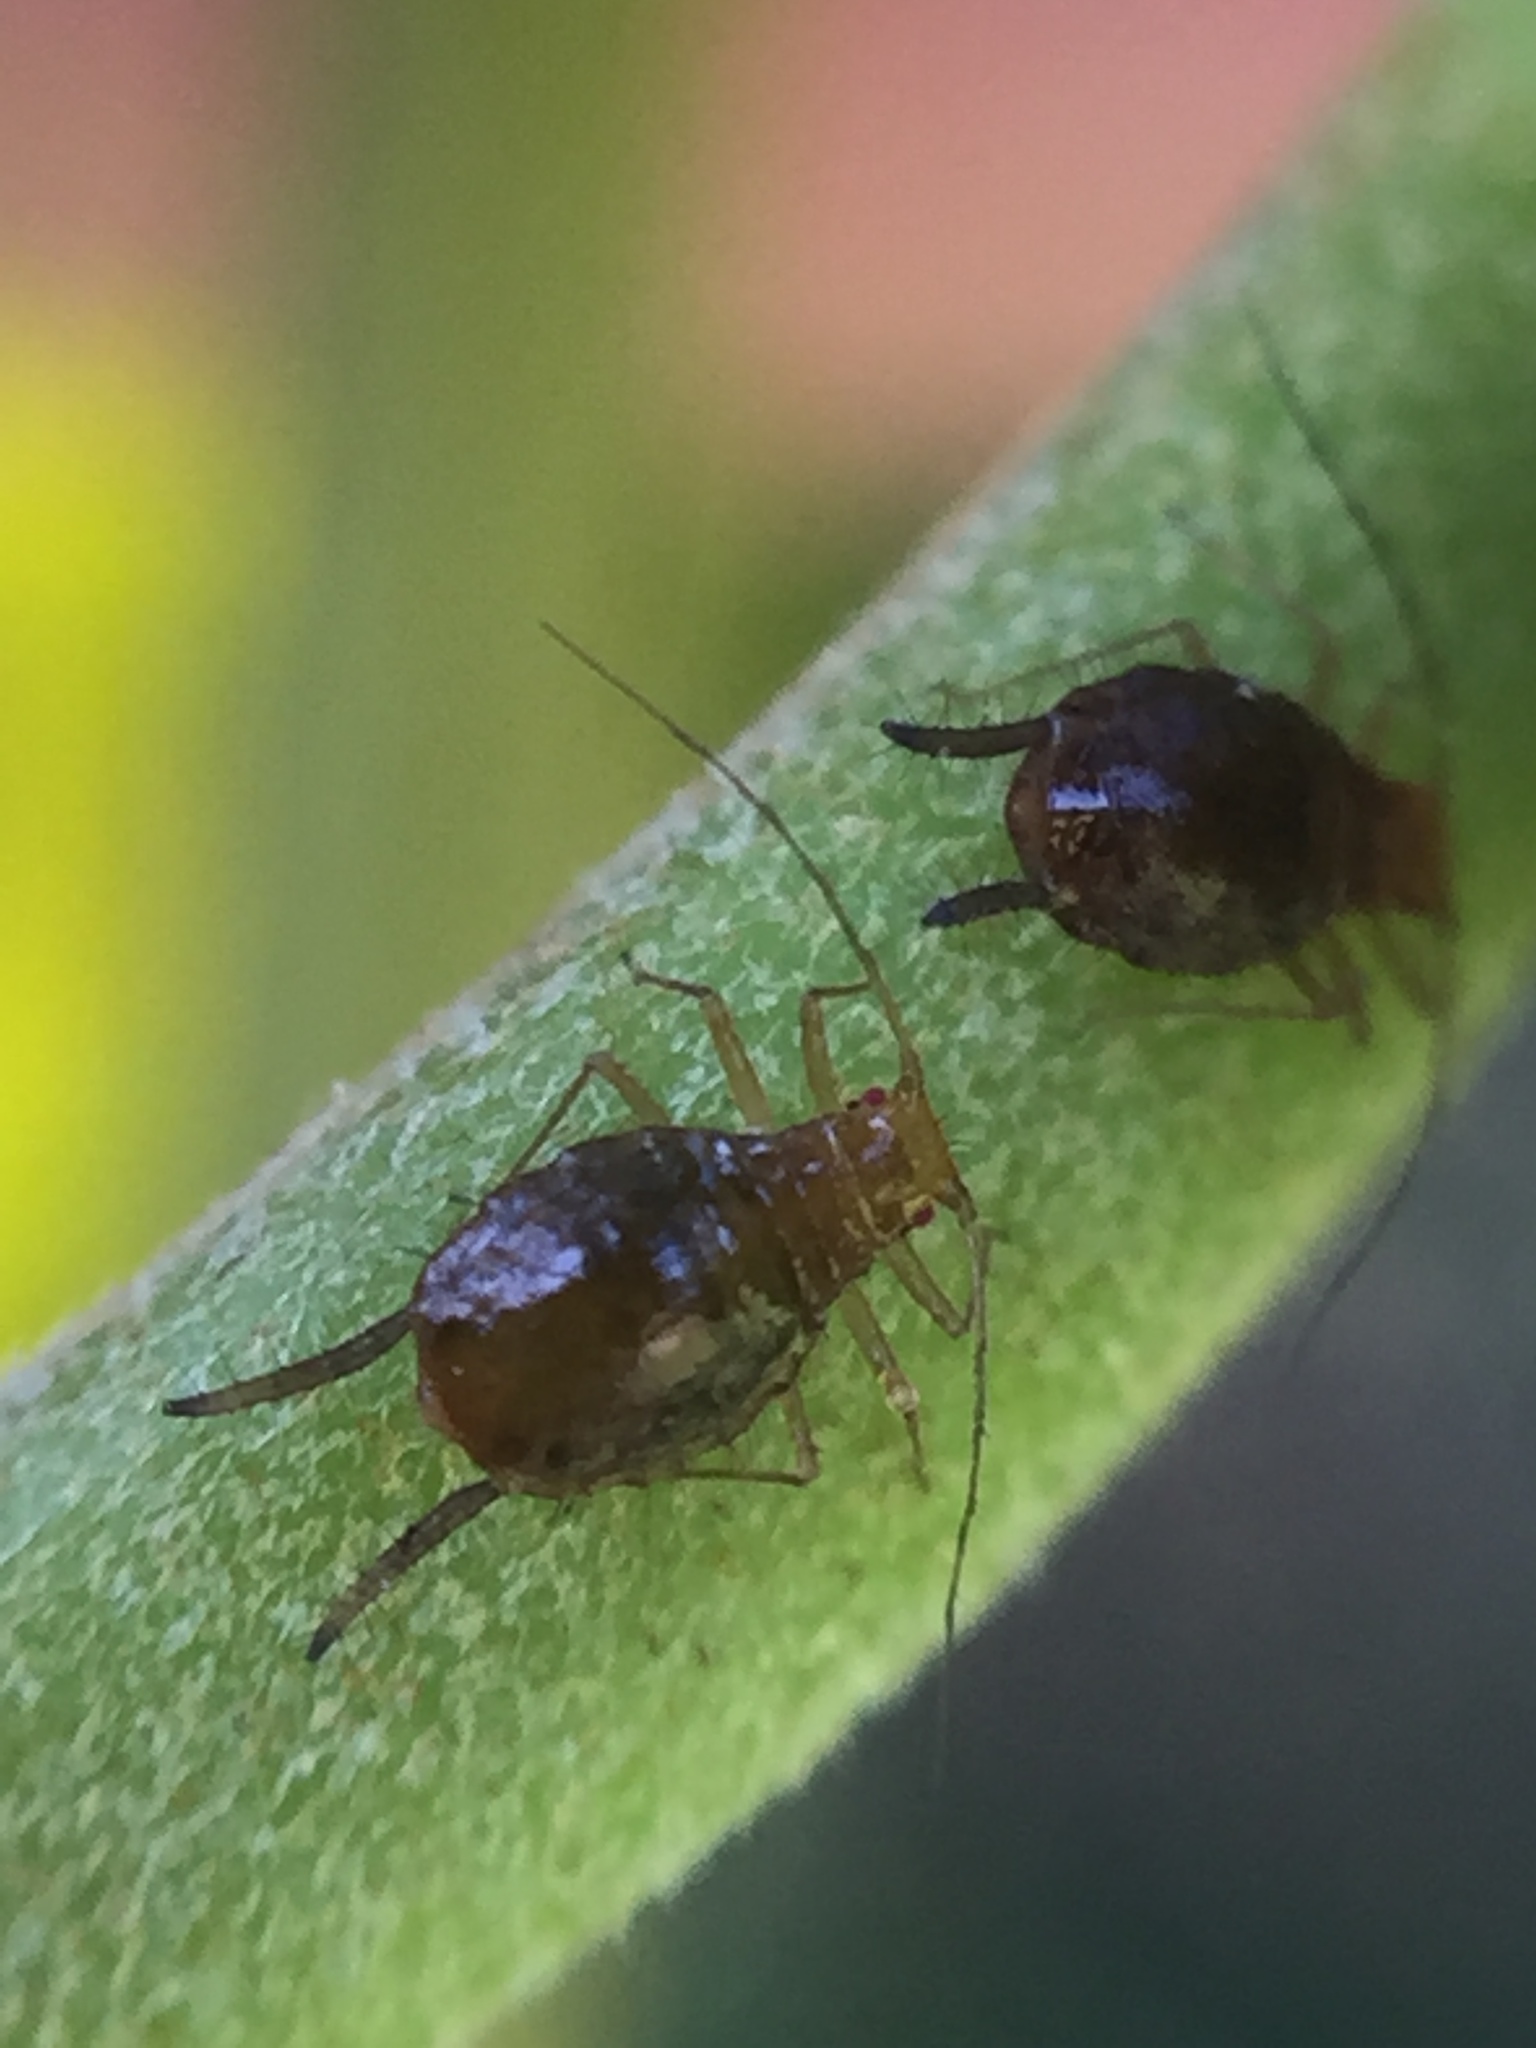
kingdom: Animalia
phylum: Arthropoda
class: Insecta
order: Hemiptera
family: Aphididae
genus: Greenidea
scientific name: Greenidea ficicola
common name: Aphid
